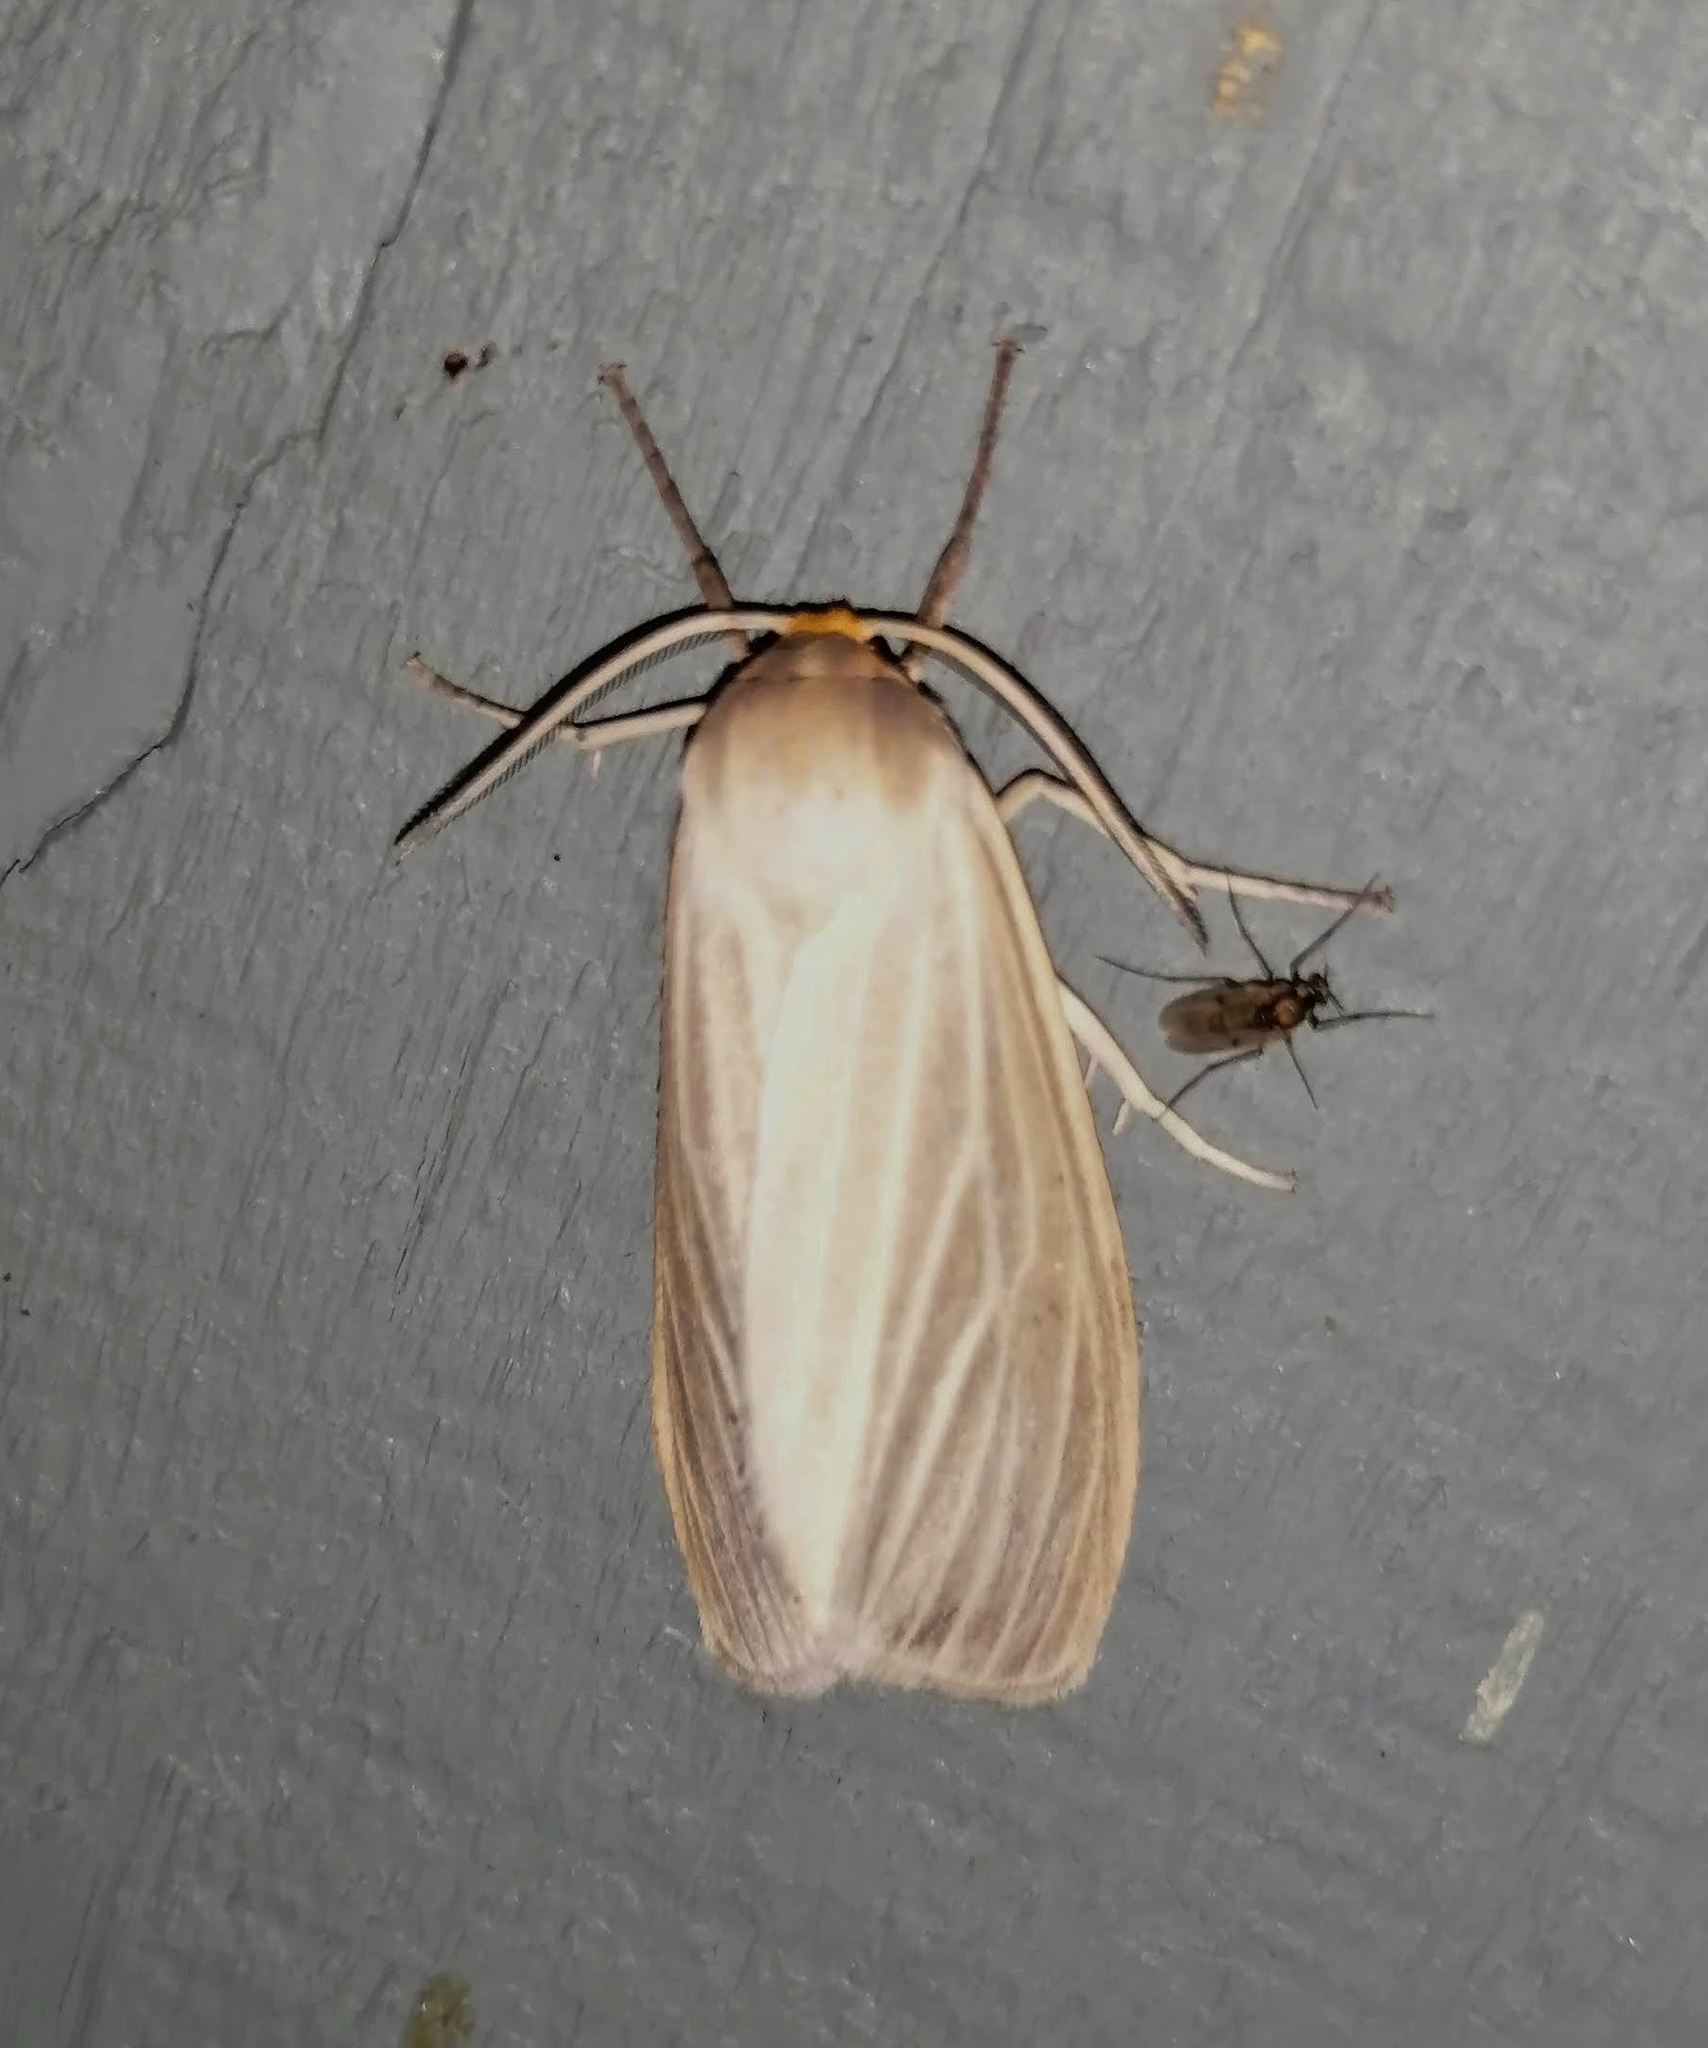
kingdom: Animalia
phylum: Arthropoda
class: Insecta
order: Lepidoptera
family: Erebidae
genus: Cycnia
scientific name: Cycnia oregonensis
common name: Oregon cycnia moth
